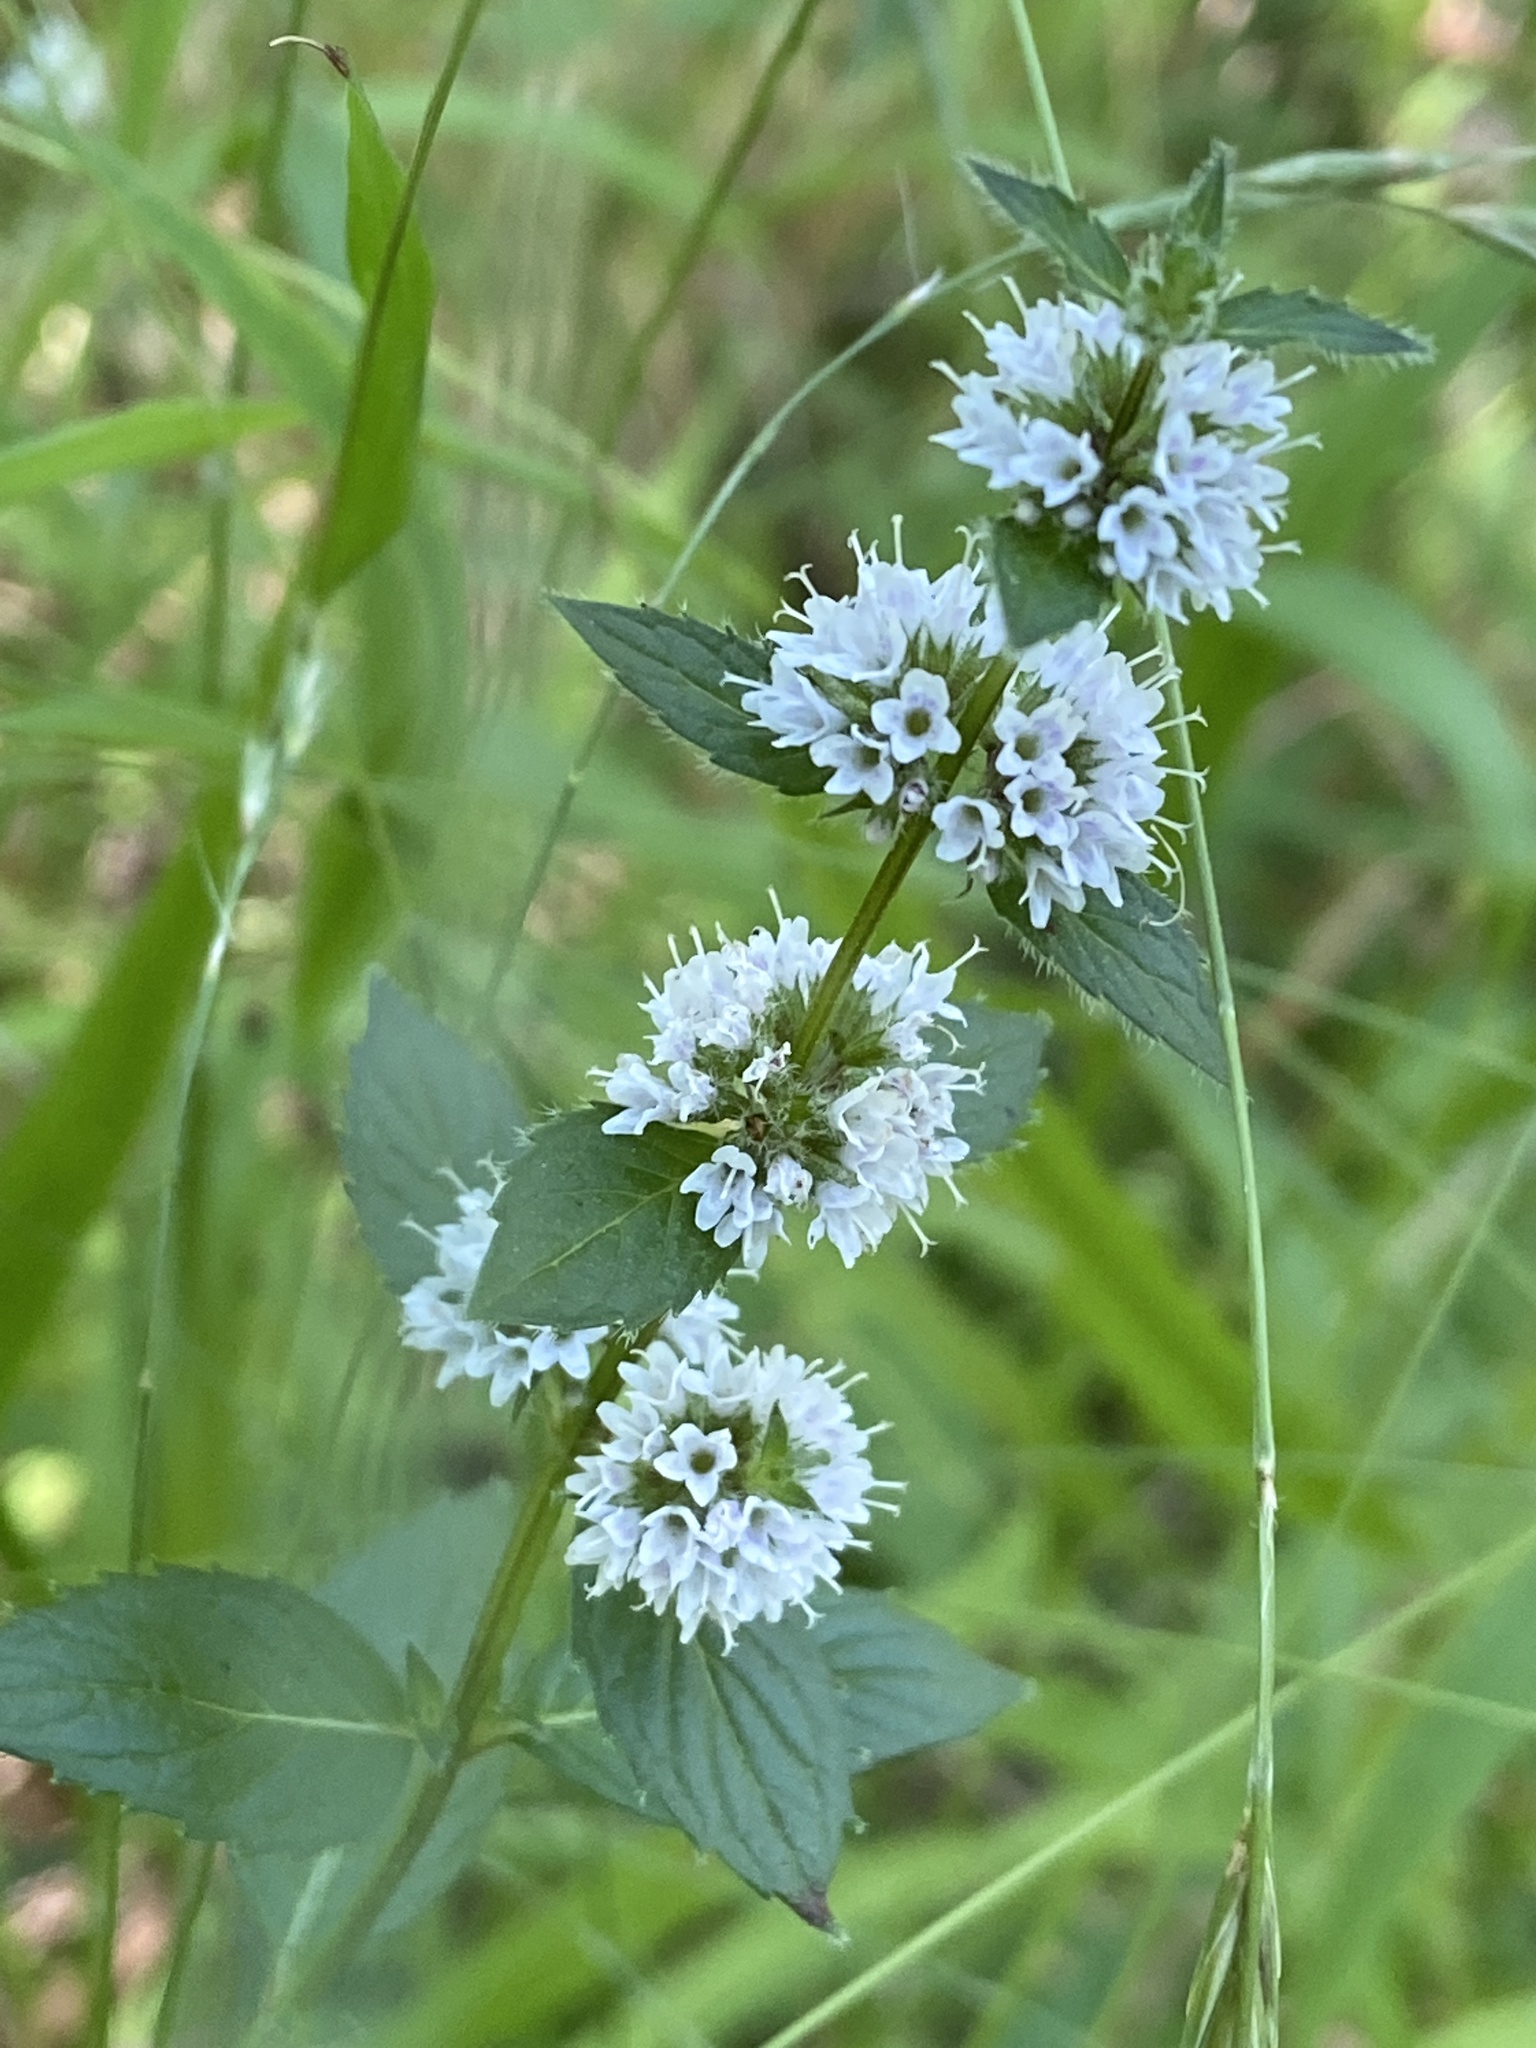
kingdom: Plantae
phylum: Tracheophyta
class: Magnoliopsida
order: Lamiales
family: Lamiaceae
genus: Mentha
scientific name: Mentha arvensis
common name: Corn mint
